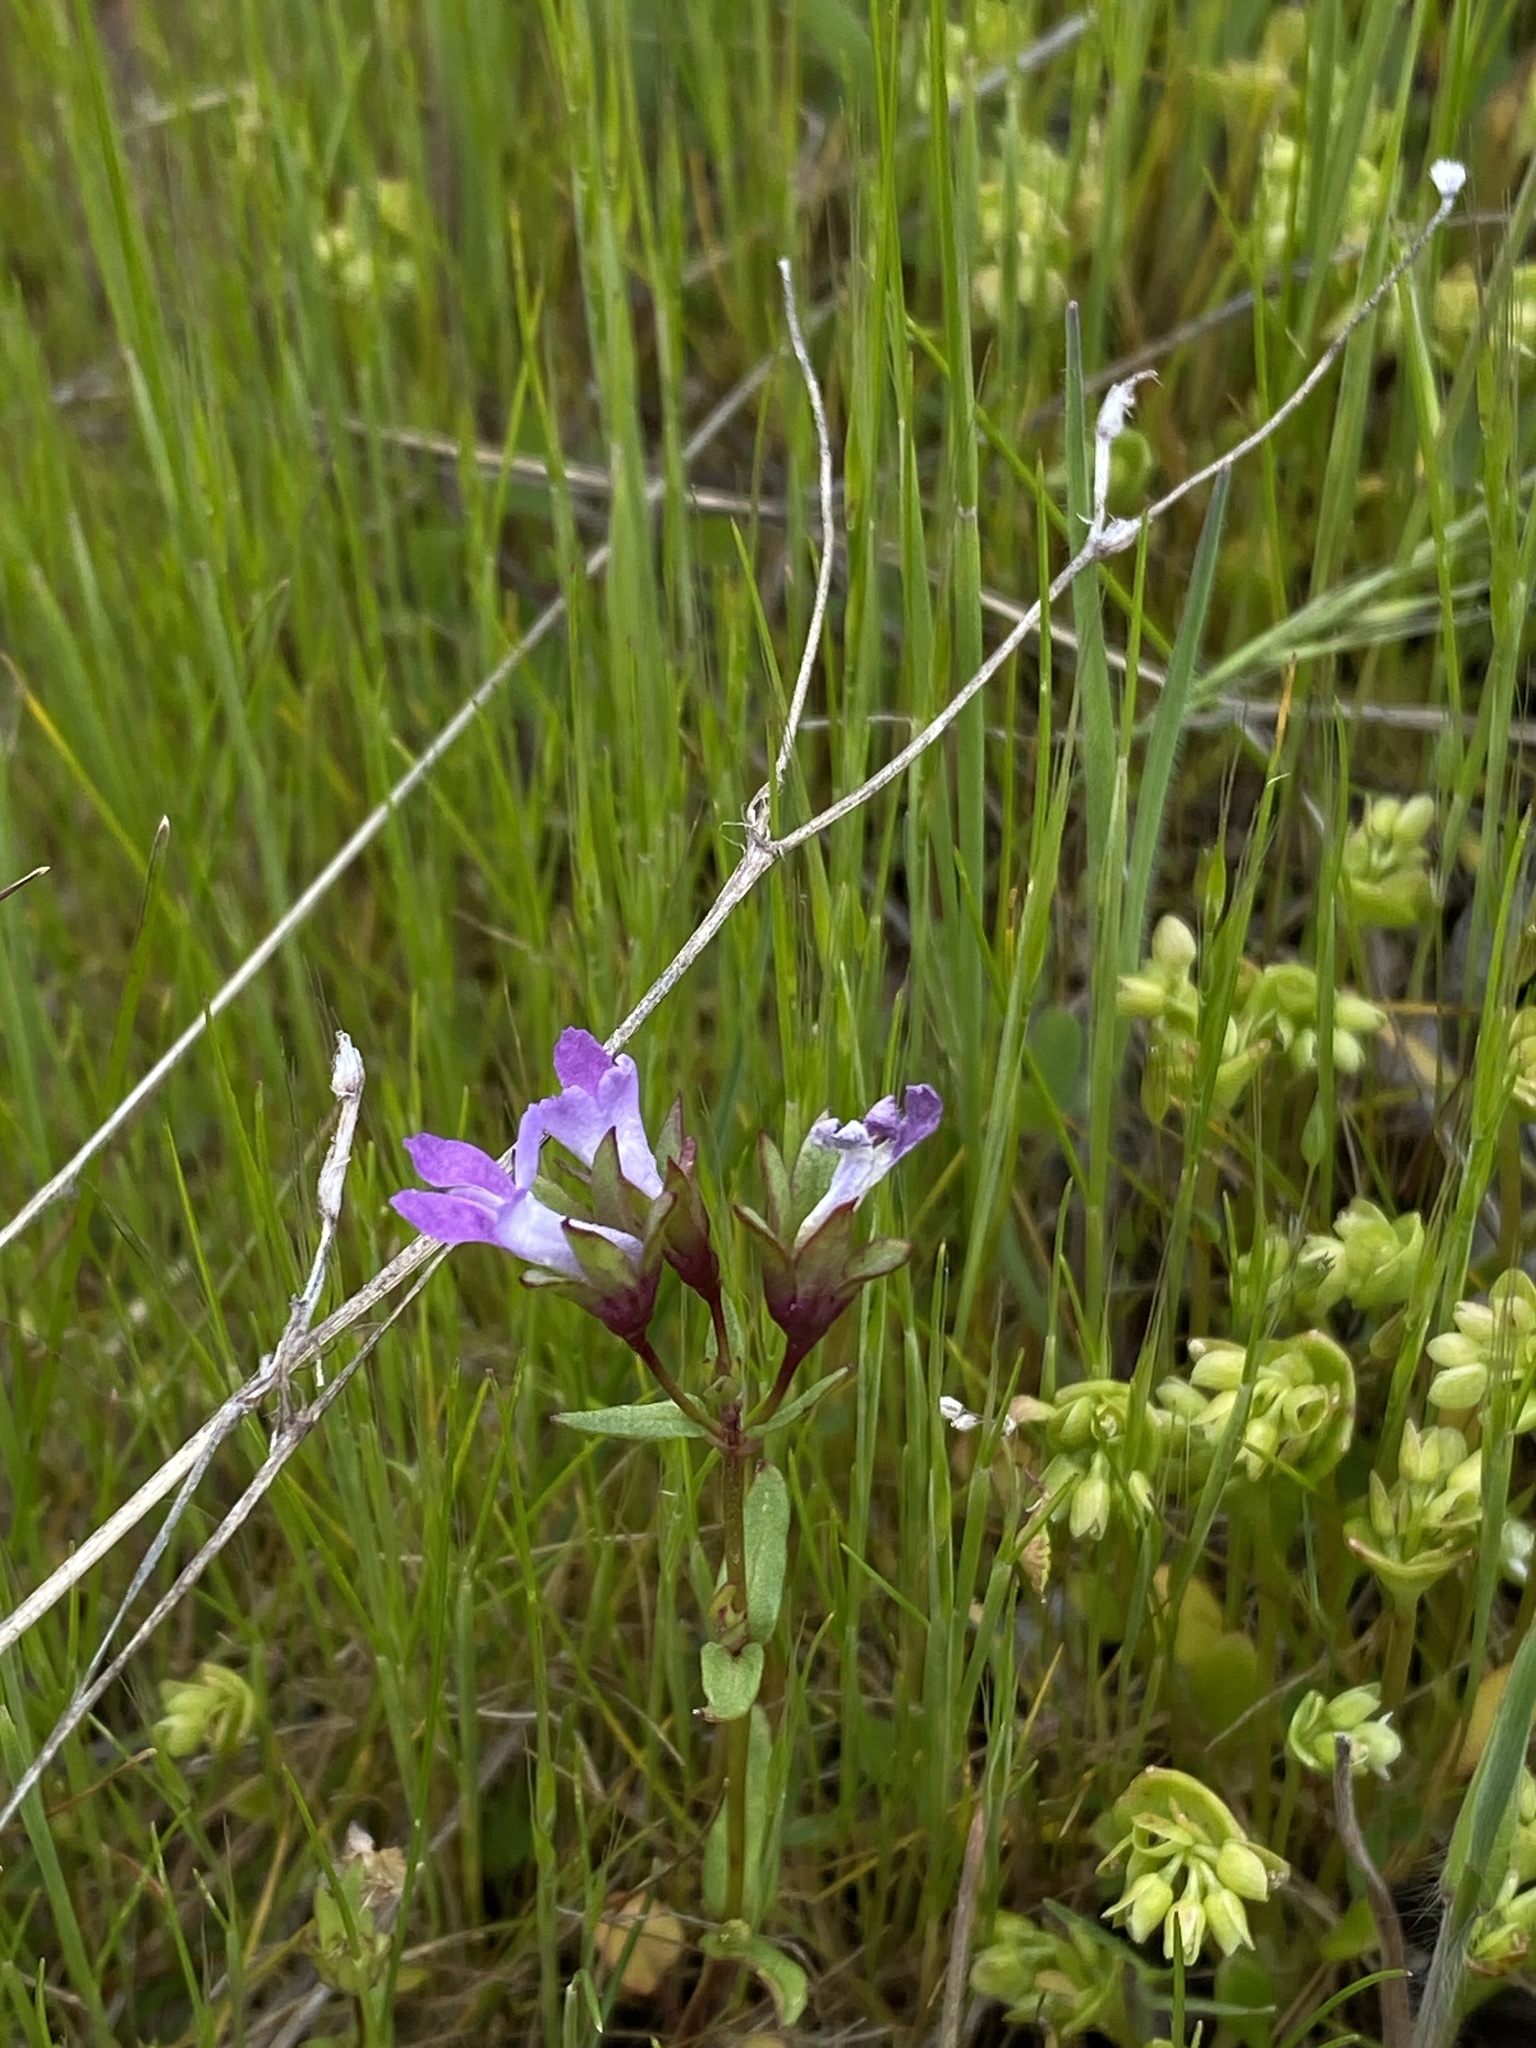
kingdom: Plantae
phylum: Tracheophyta
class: Magnoliopsida
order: Lamiales
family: Plantaginaceae
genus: Collinsia
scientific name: Collinsia sparsiflora
